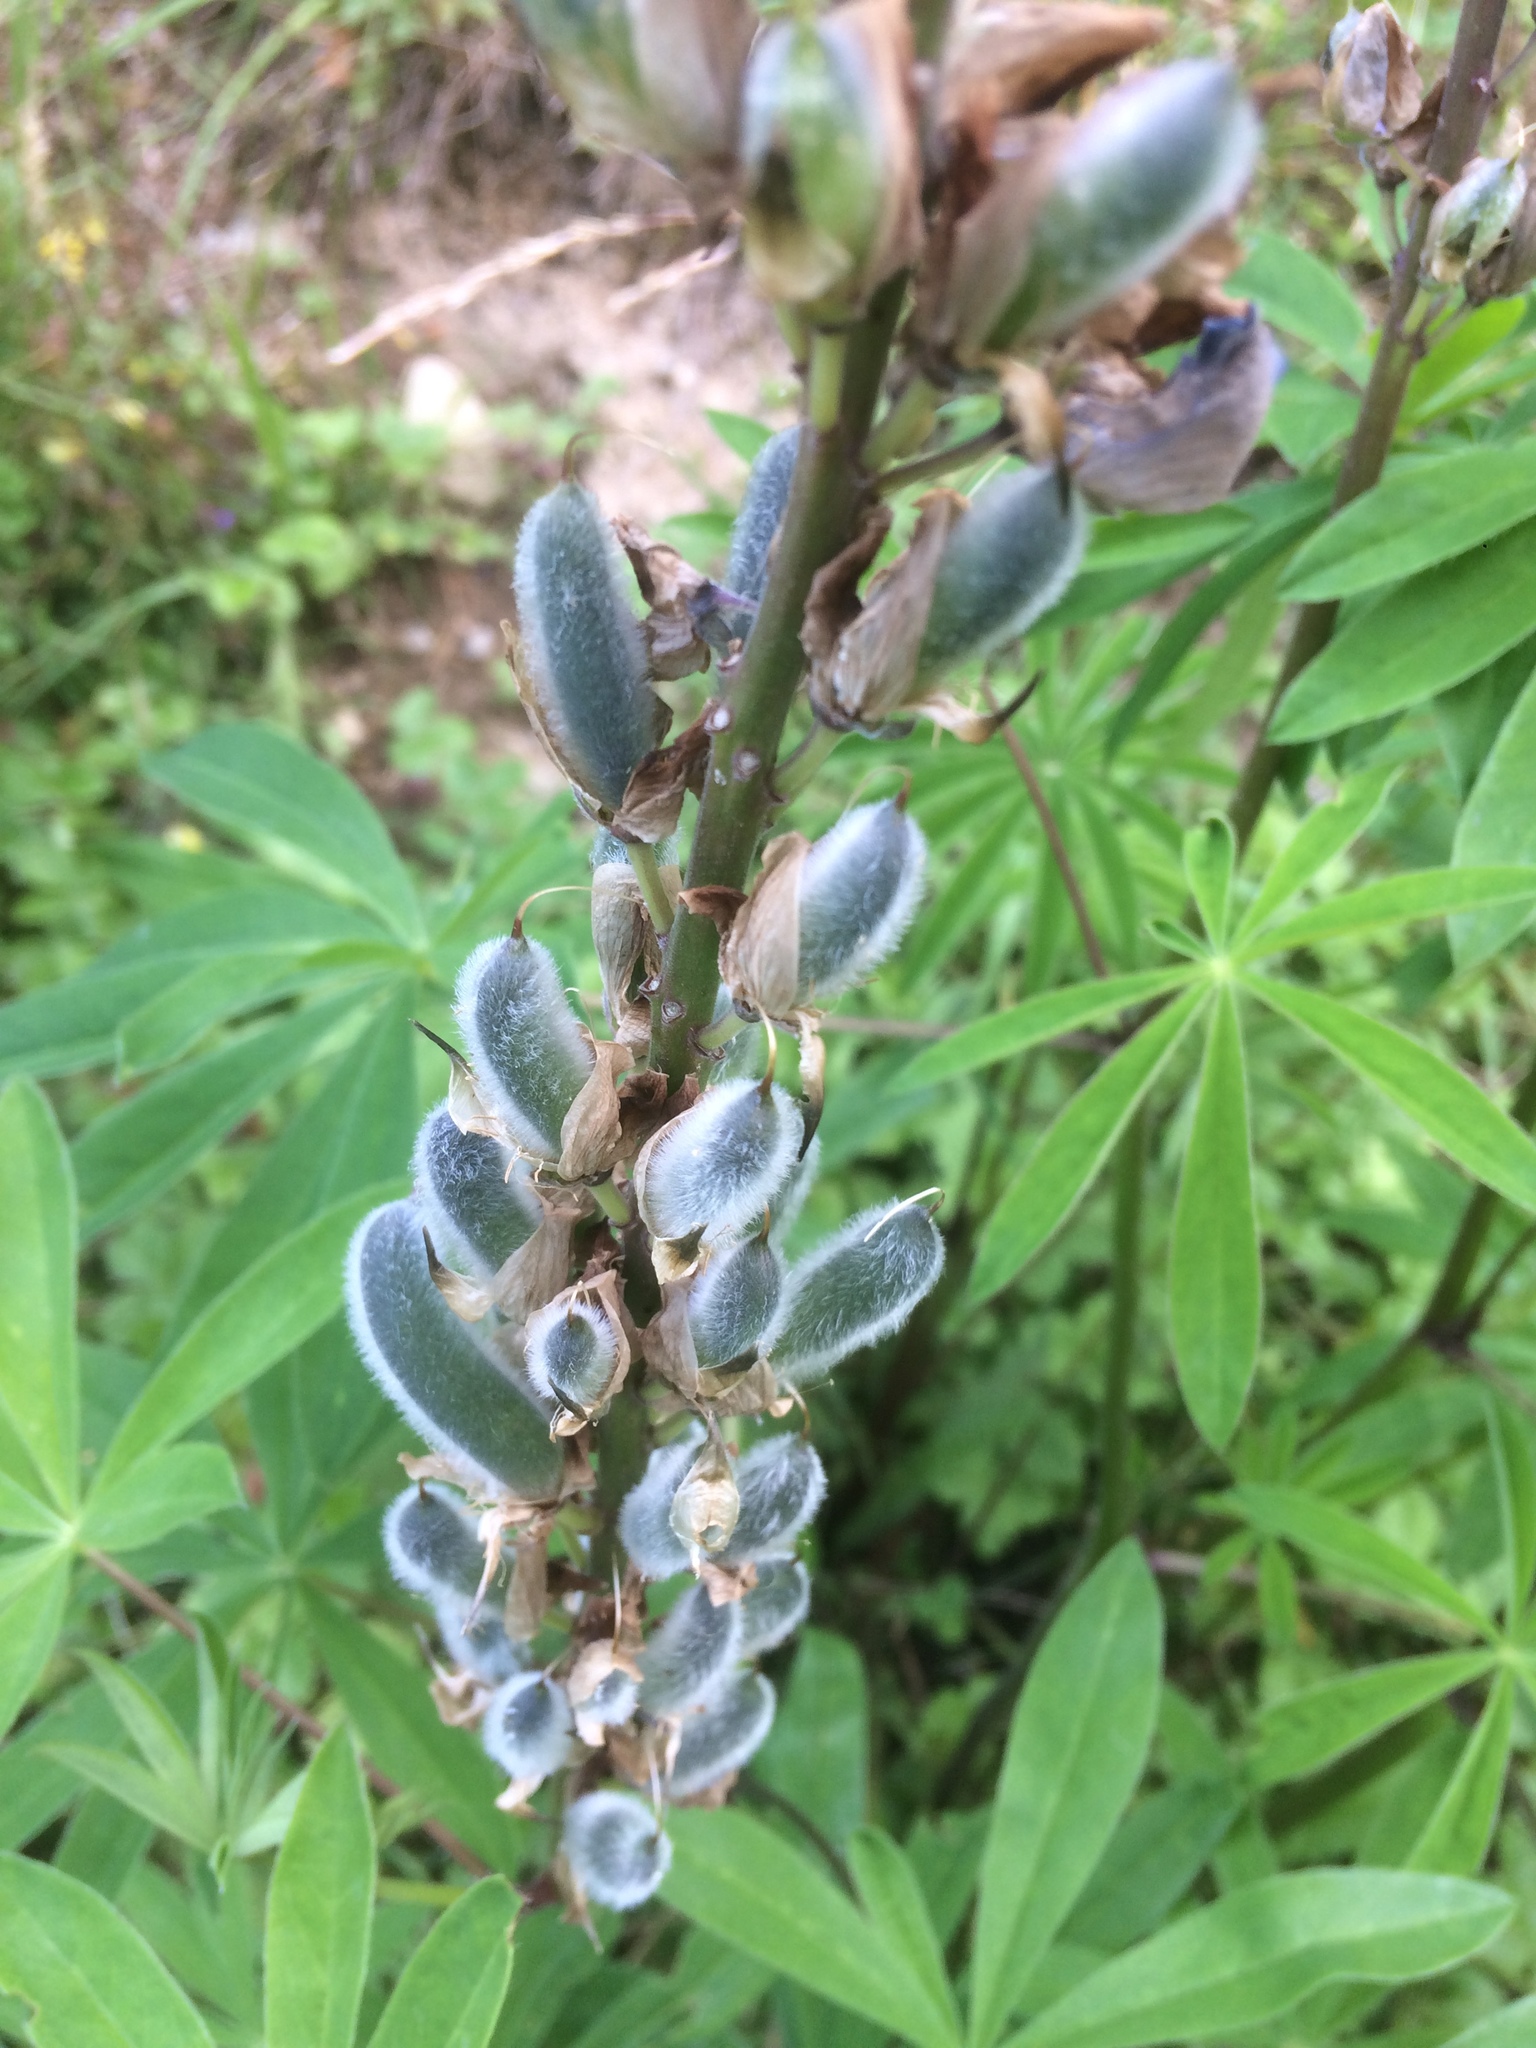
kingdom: Plantae
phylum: Tracheophyta
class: Magnoliopsida
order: Fabales
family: Fabaceae
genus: Lupinus
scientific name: Lupinus polyphyllus
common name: Garden lupin
